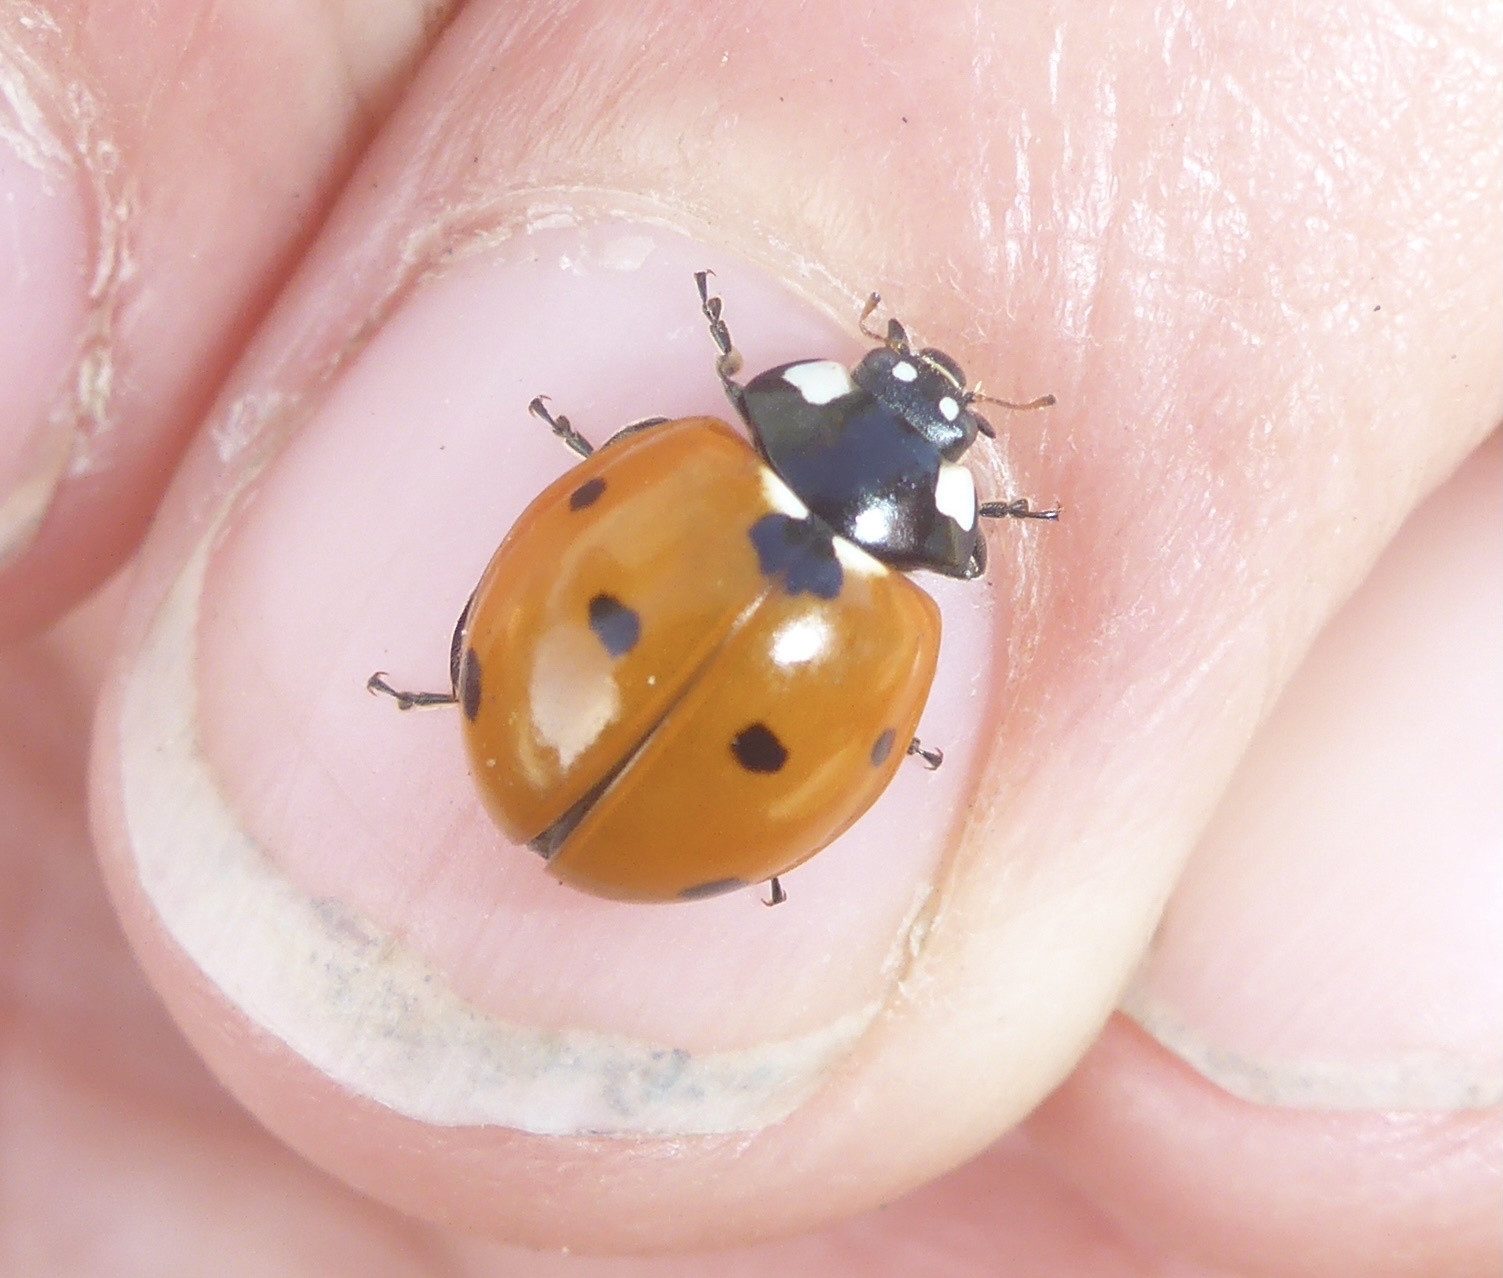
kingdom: Animalia
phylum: Arthropoda
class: Insecta
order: Coleoptera
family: Coccinellidae
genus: Coccinella
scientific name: Coccinella septempunctata
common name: Sevenspotted lady beetle
